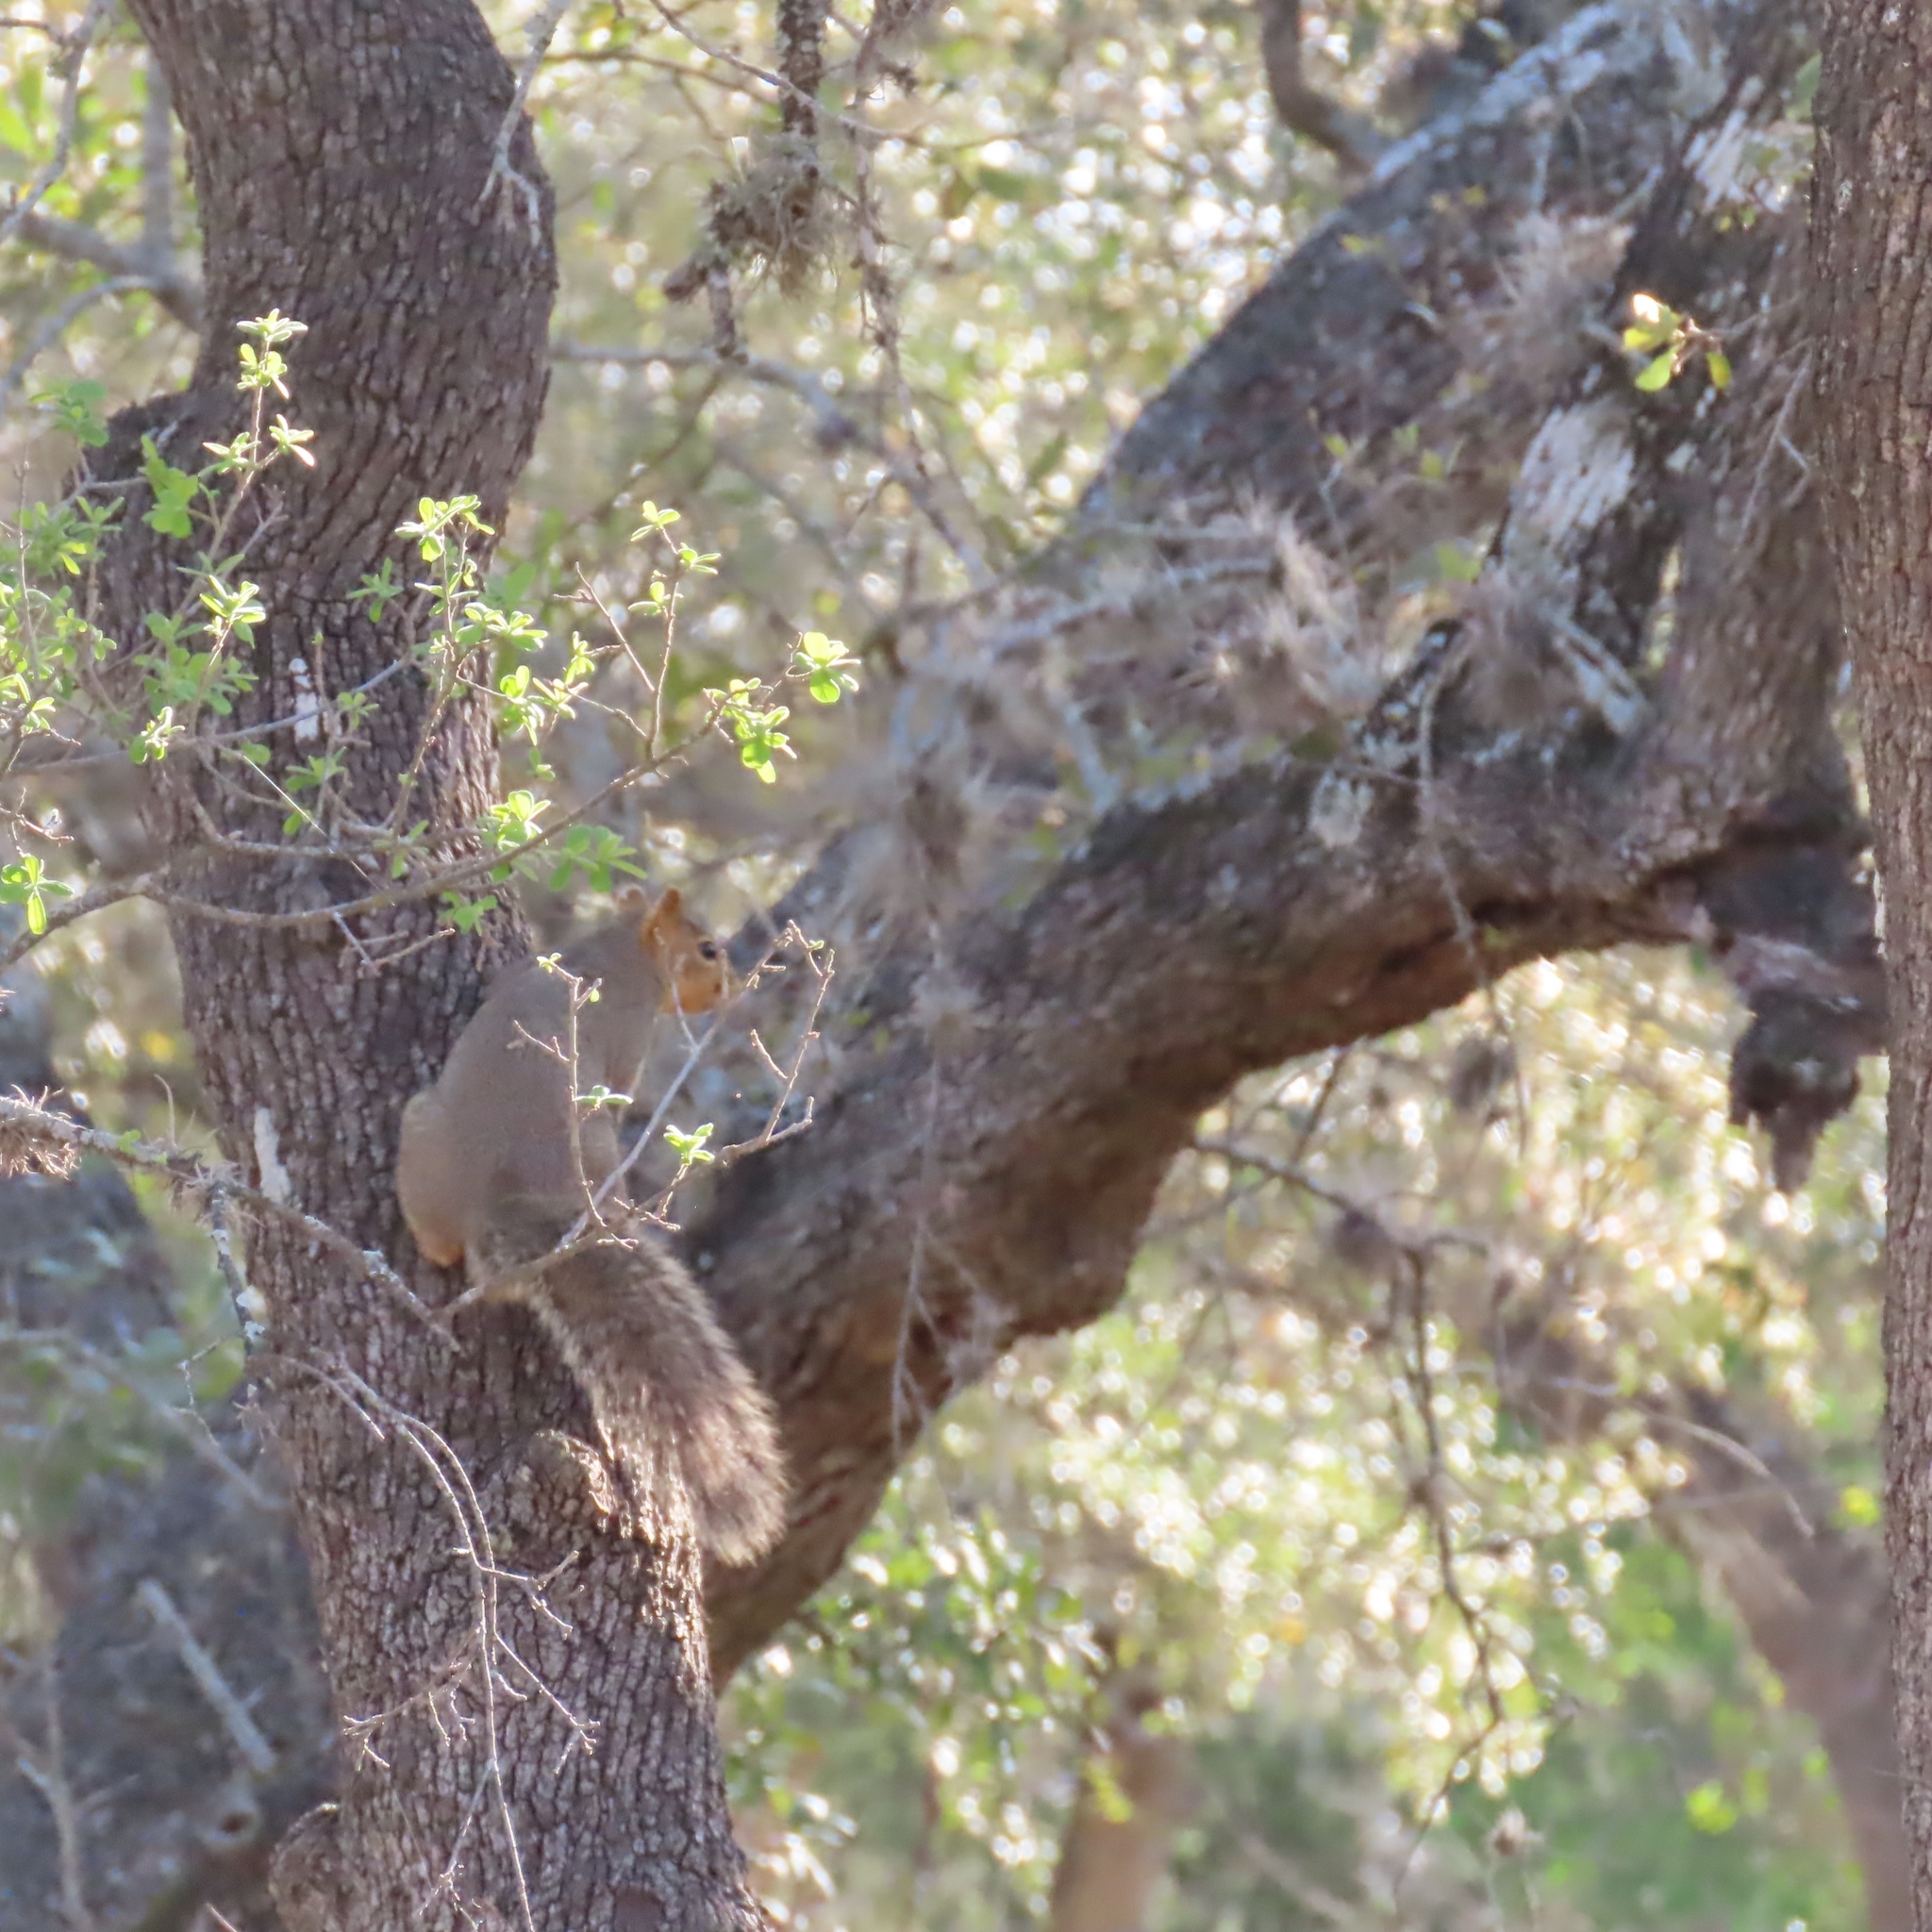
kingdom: Animalia
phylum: Chordata
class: Mammalia
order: Rodentia
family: Sciuridae
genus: Sciurus
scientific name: Sciurus niger
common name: Fox squirrel
